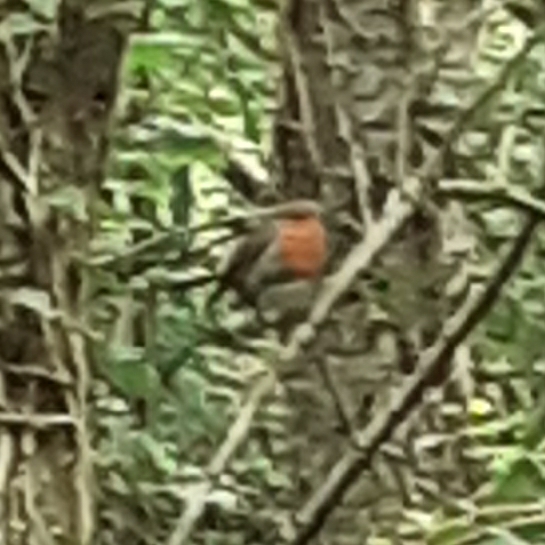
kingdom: Animalia
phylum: Chordata
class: Aves
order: Passeriformes
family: Muscicapidae
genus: Erithacus
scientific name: Erithacus rubecula
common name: European robin
